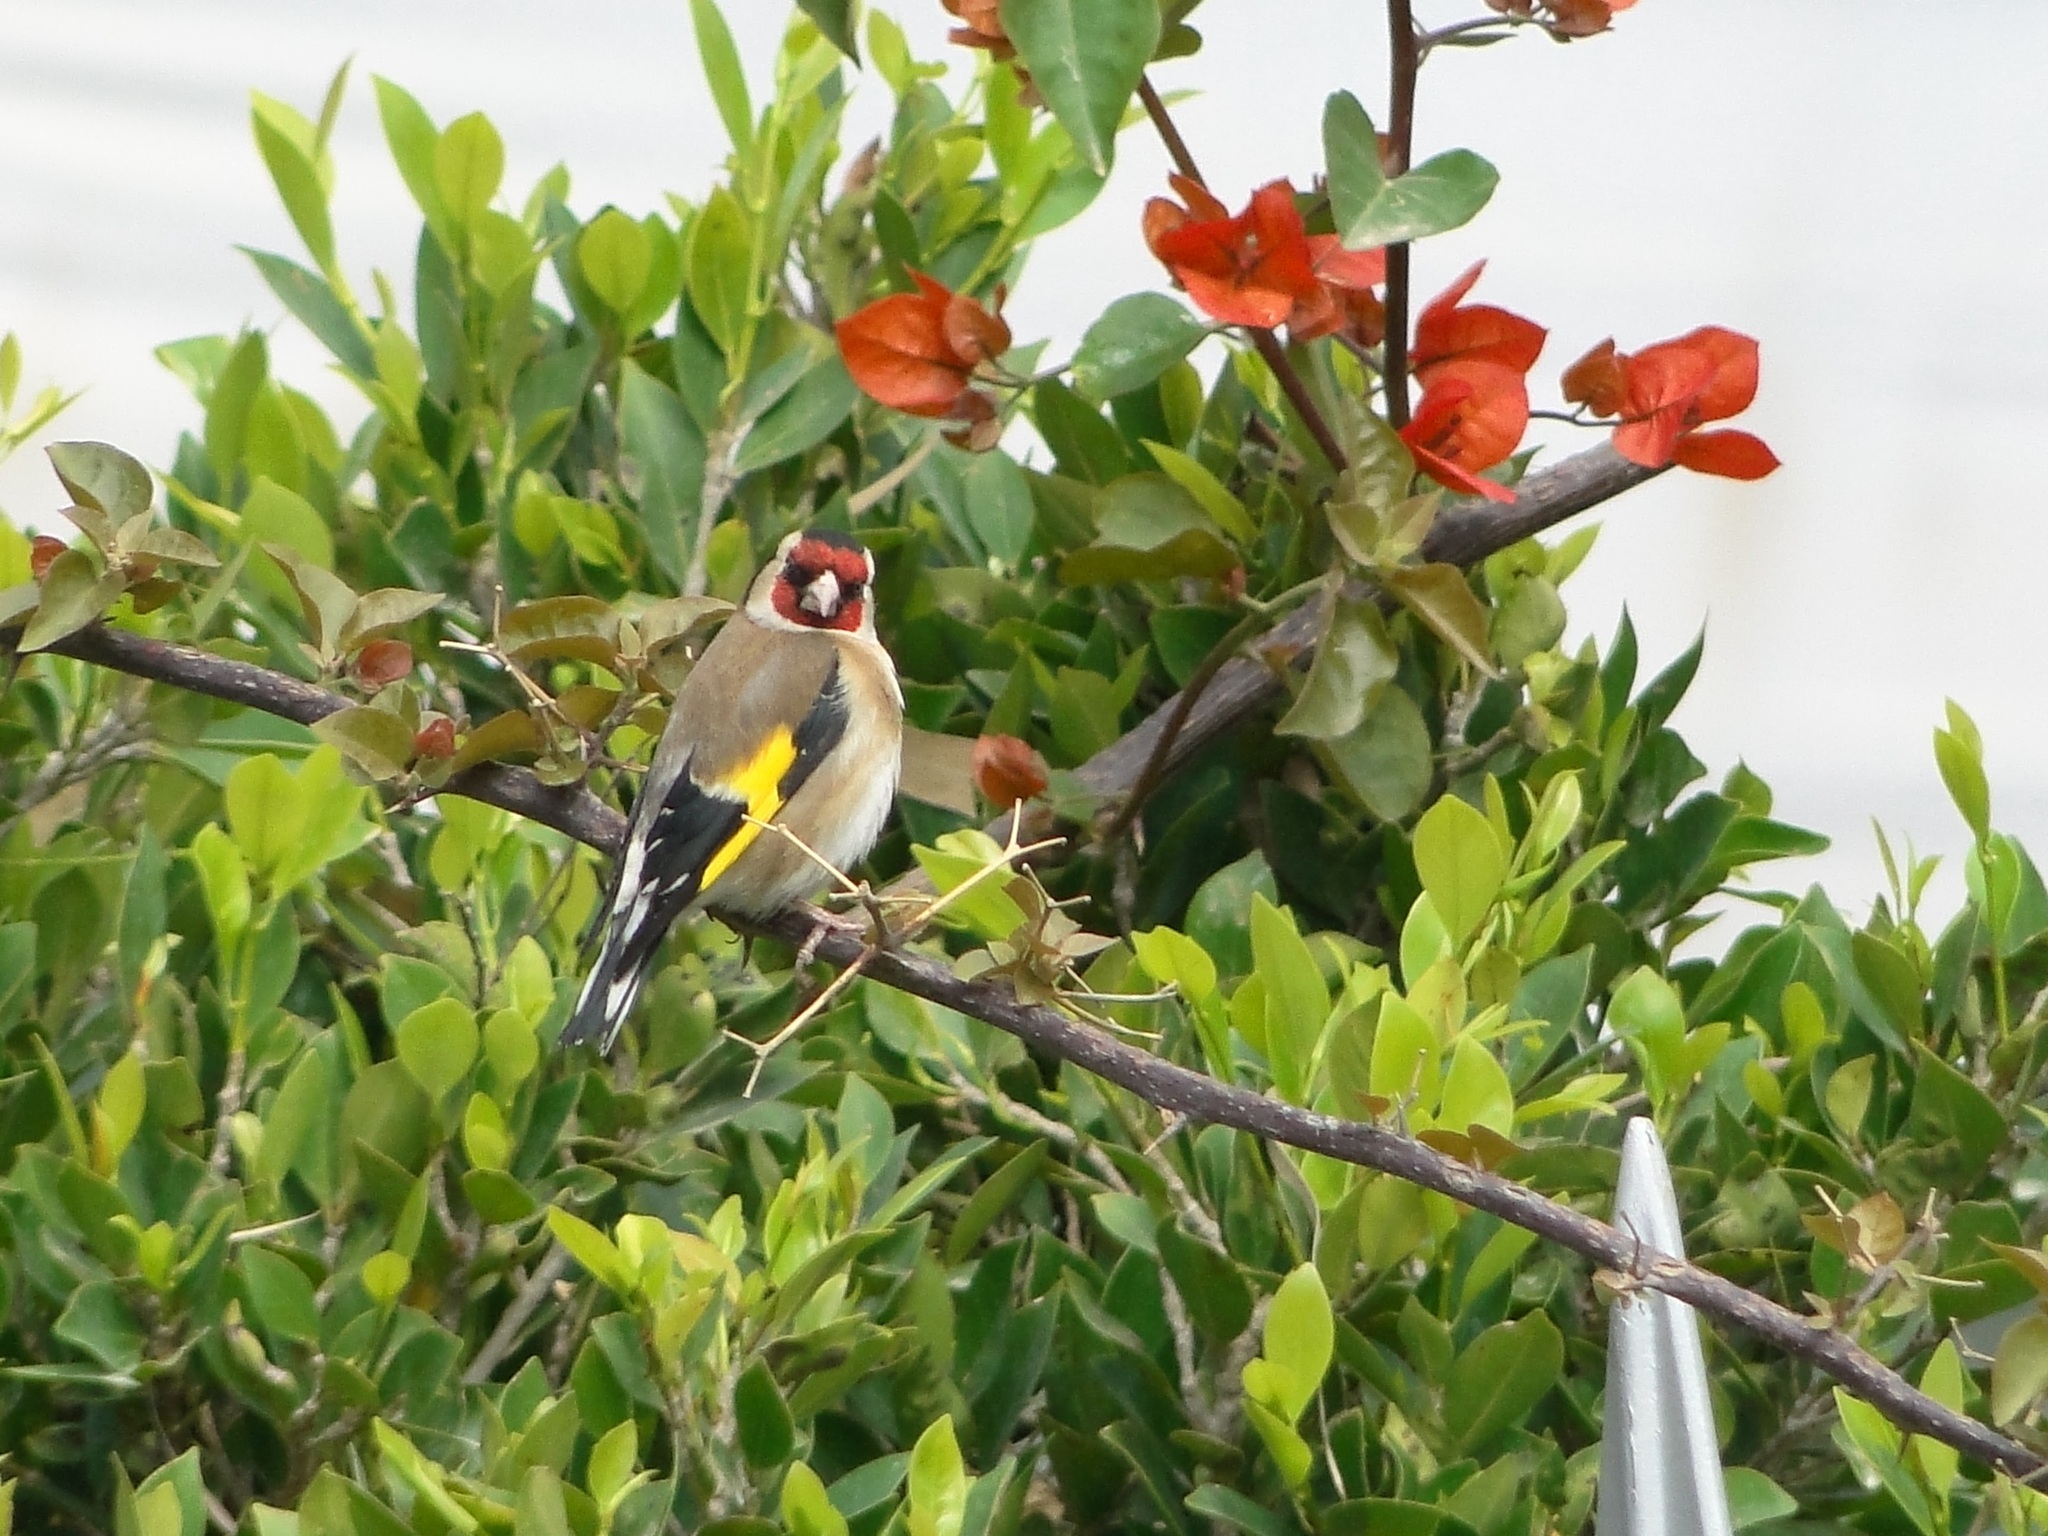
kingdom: Animalia
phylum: Chordata
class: Aves
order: Passeriformes
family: Fringillidae
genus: Carduelis
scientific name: Carduelis carduelis
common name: European goldfinch
